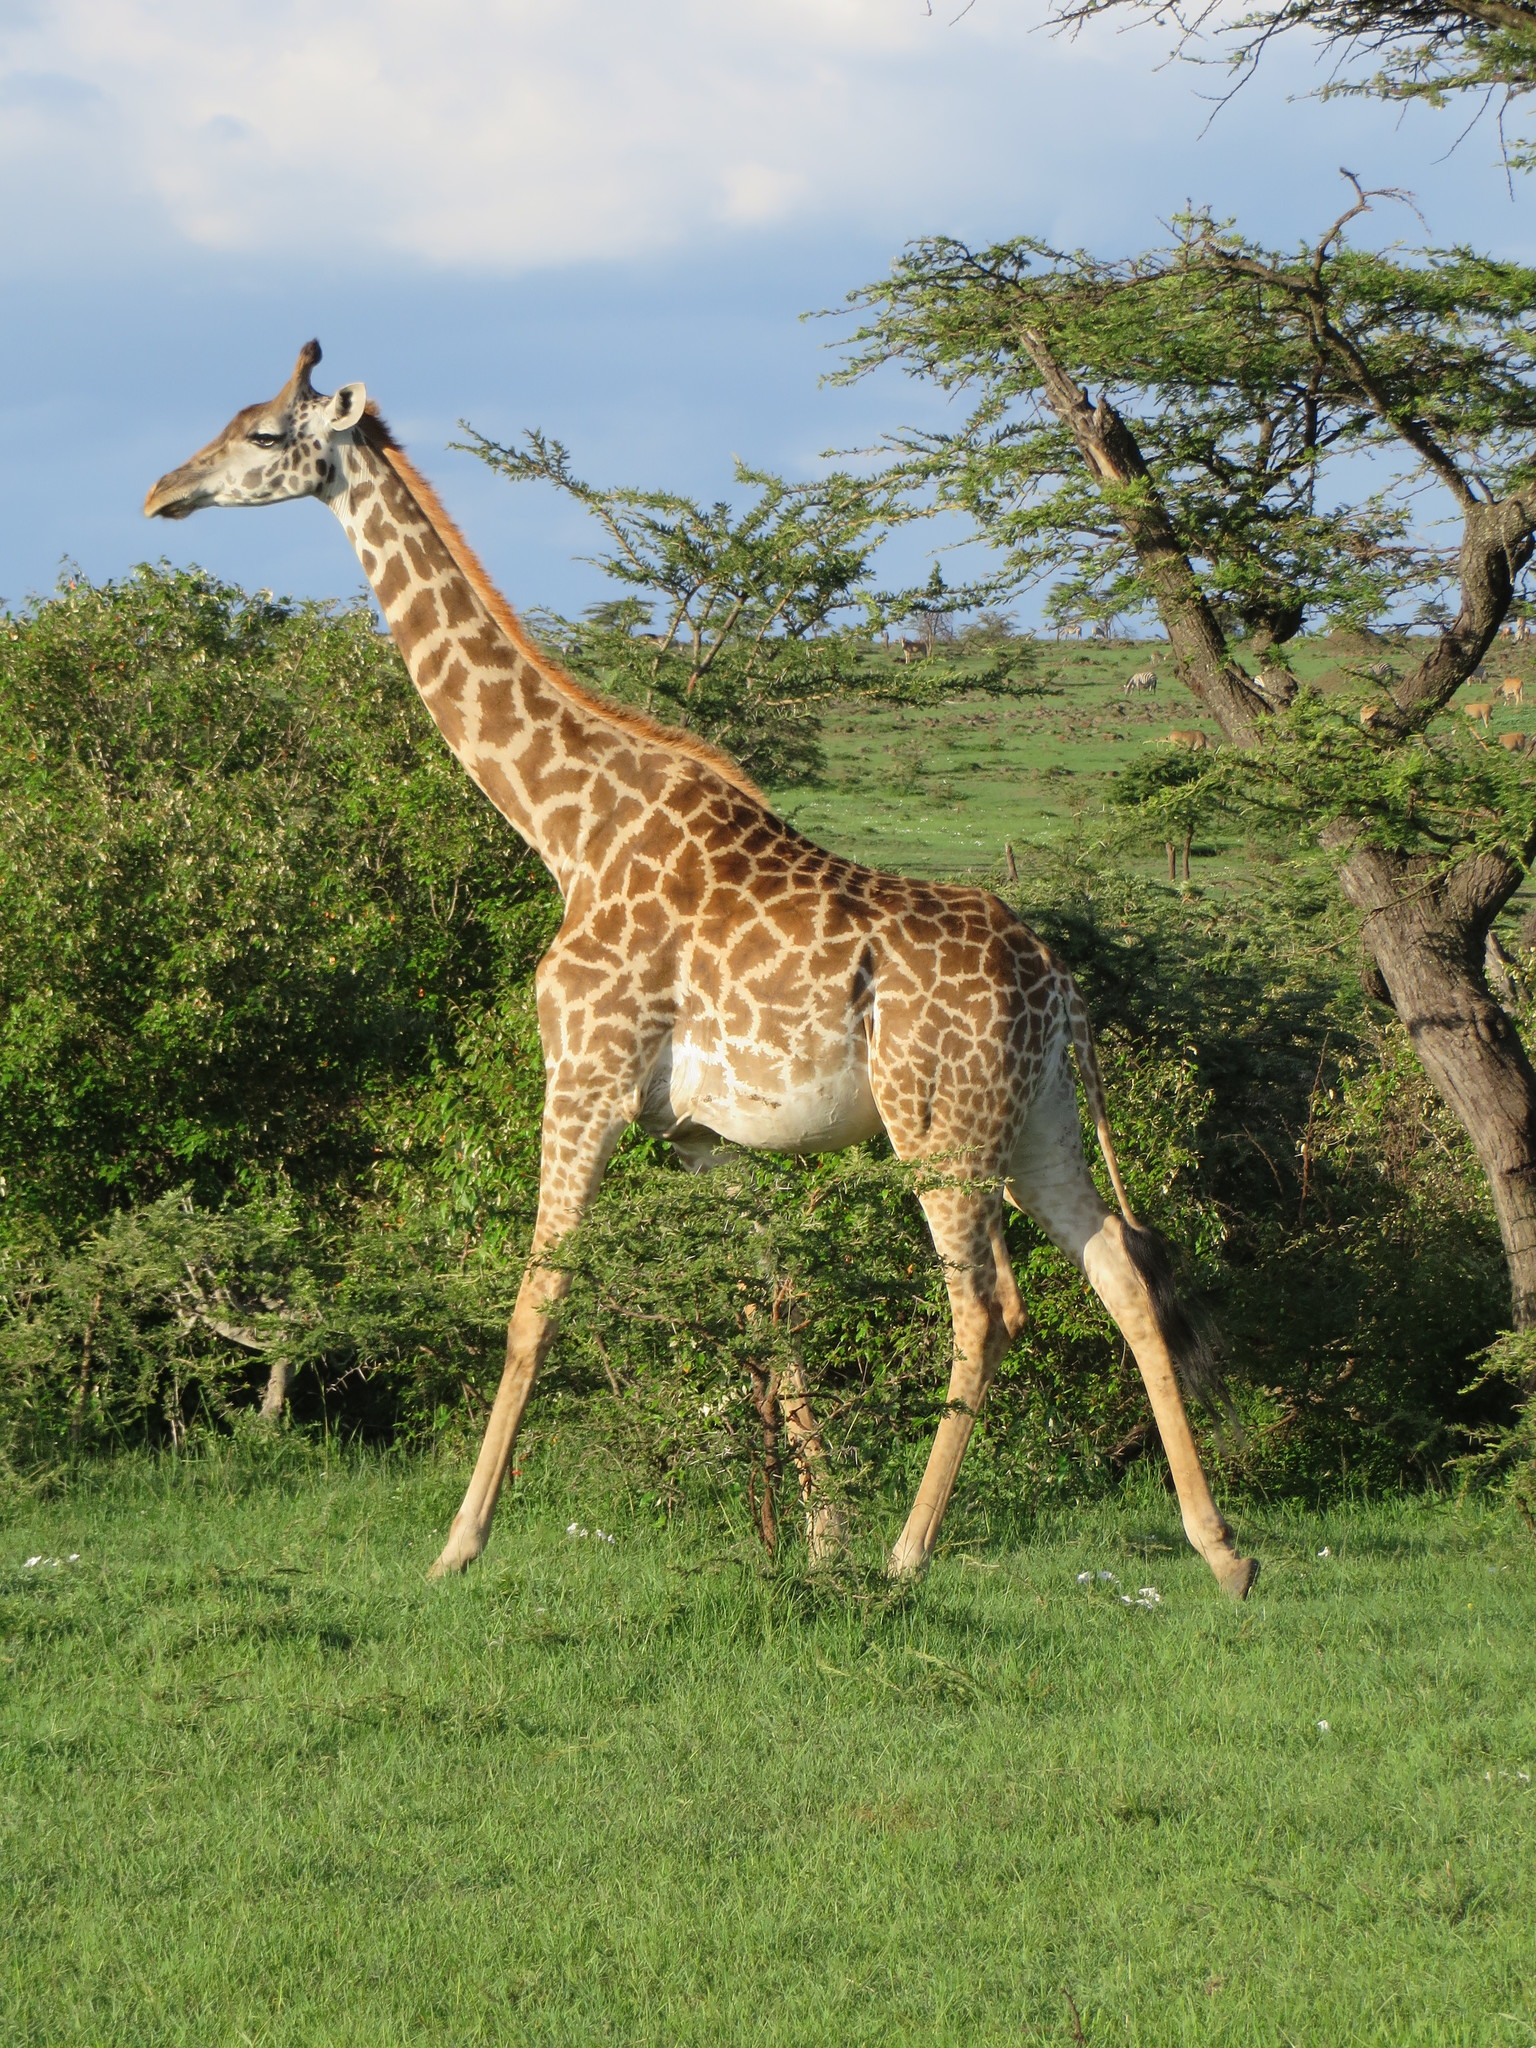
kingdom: Animalia
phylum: Chordata
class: Mammalia
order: Artiodactyla
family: Giraffidae
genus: Giraffa
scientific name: Giraffa tippelskirchi
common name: Masai giraffe
